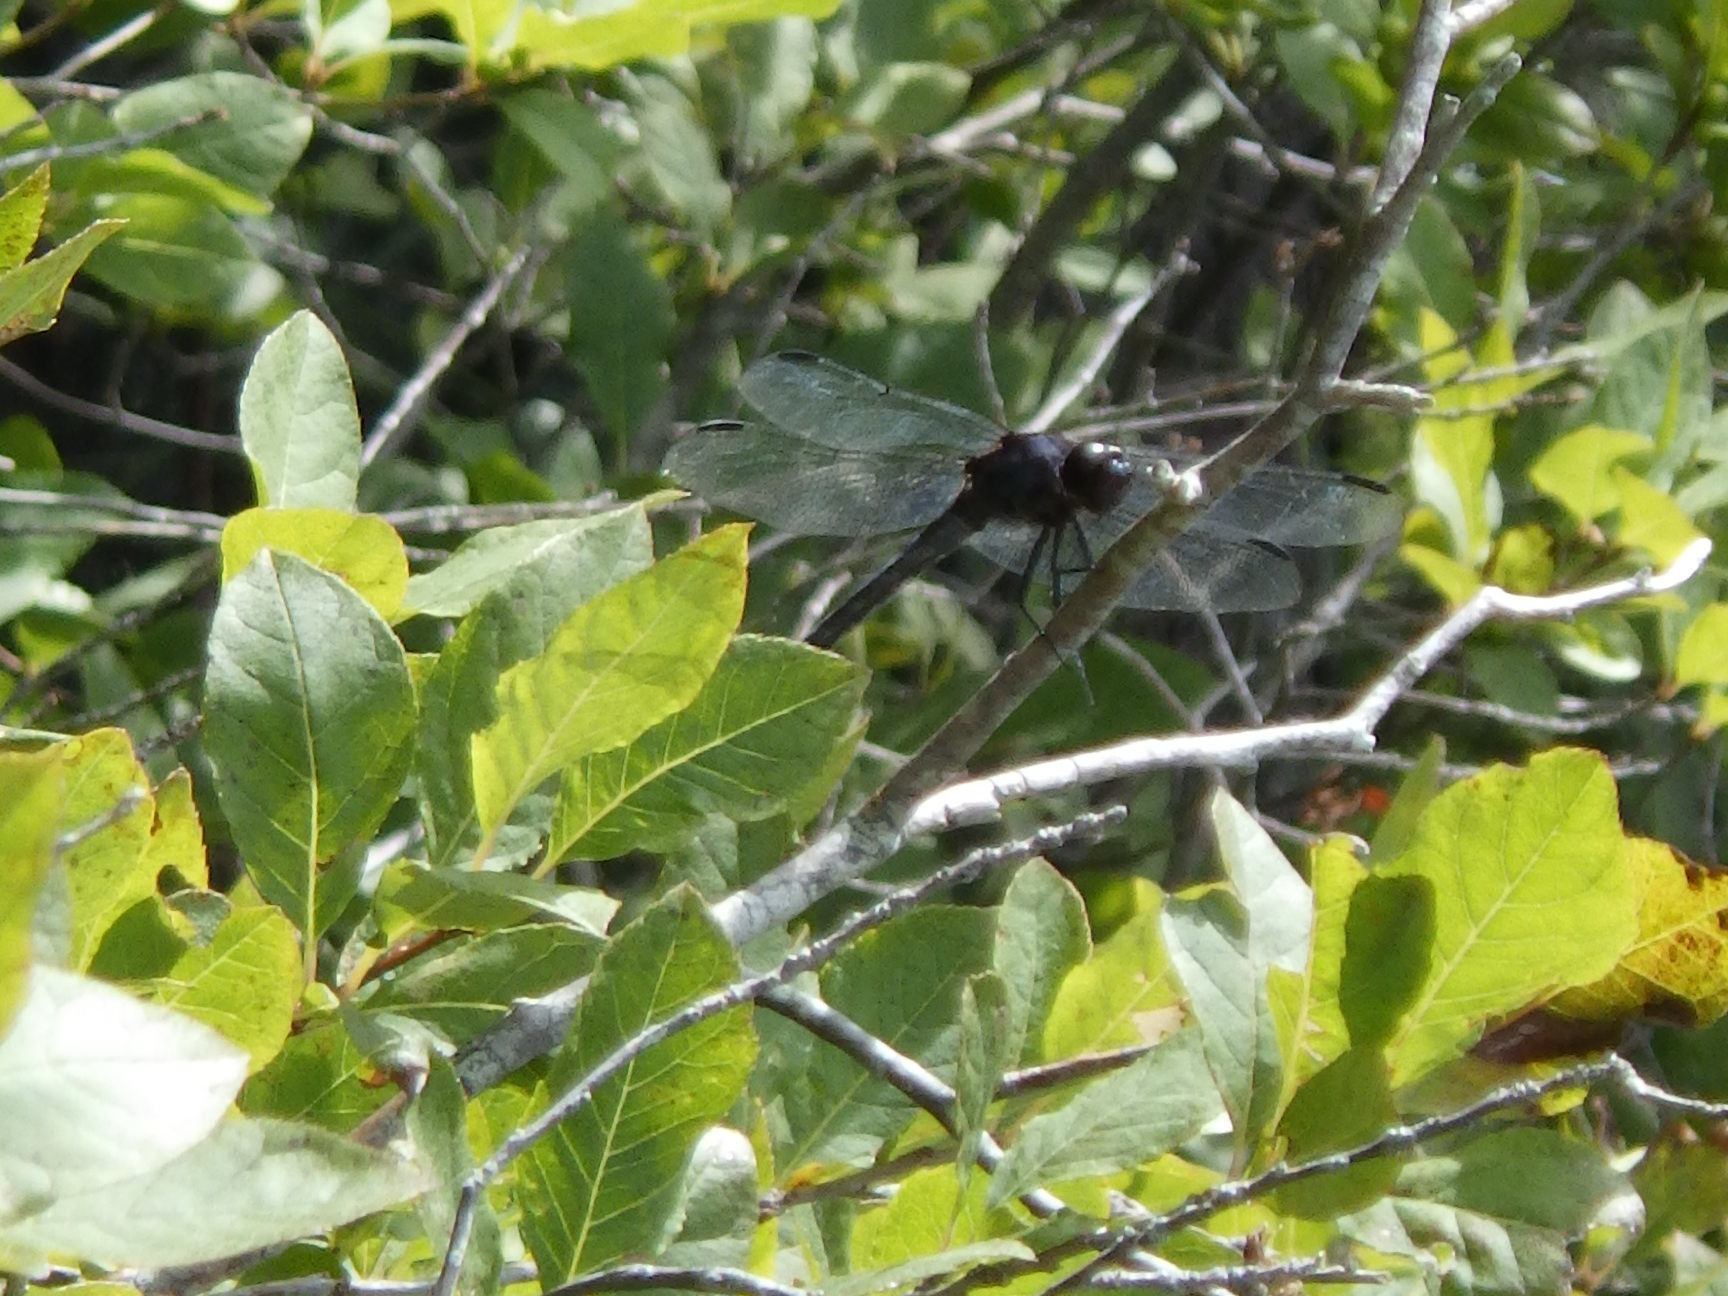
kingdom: Animalia
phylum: Arthropoda
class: Insecta
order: Odonata
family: Libellulidae
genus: Libellula
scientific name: Libellula incesta
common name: Slaty skimmer
